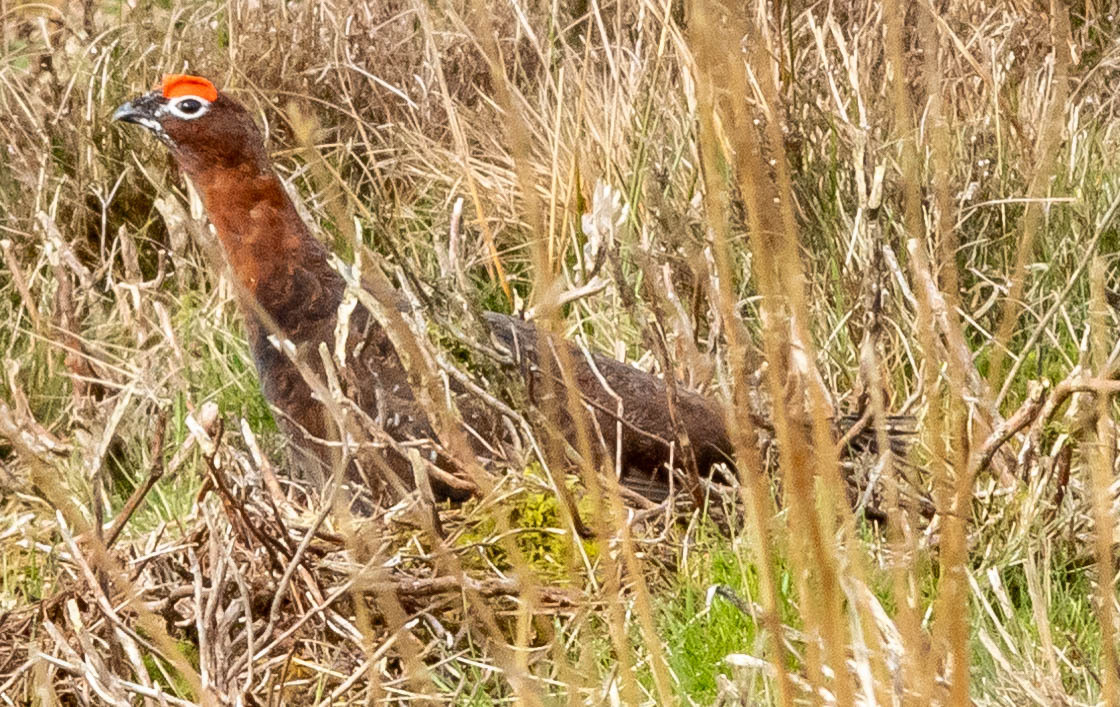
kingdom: Animalia
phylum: Chordata
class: Aves
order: Galliformes
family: Phasianidae
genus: Lagopus
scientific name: Lagopus lagopus
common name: Willow ptarmigan
